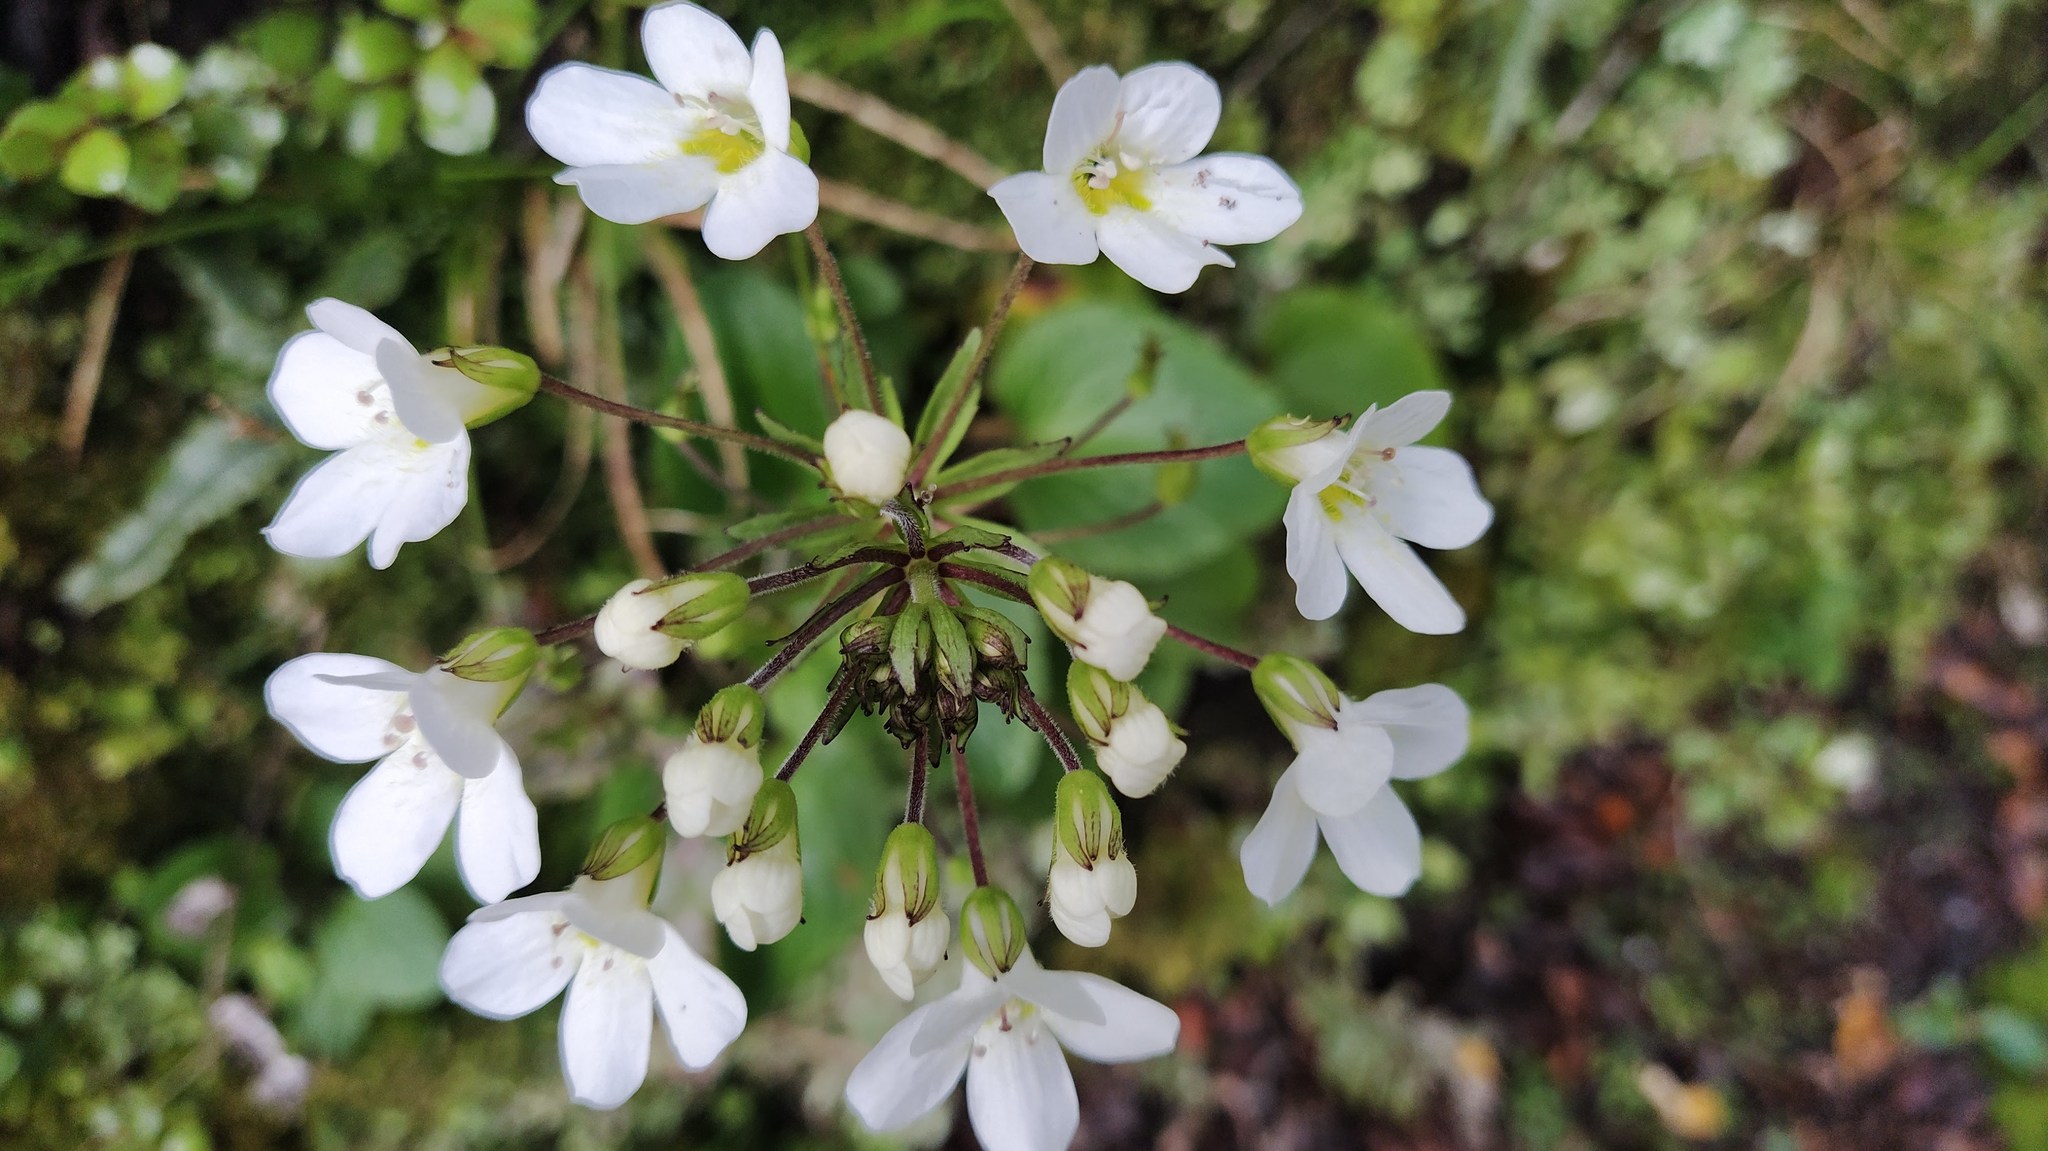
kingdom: Plantae
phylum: Tracheophyta
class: Magnoliopsida
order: Lamiales
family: Plantaginaceae
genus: Ourisia
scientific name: Ourisia macrophylla
